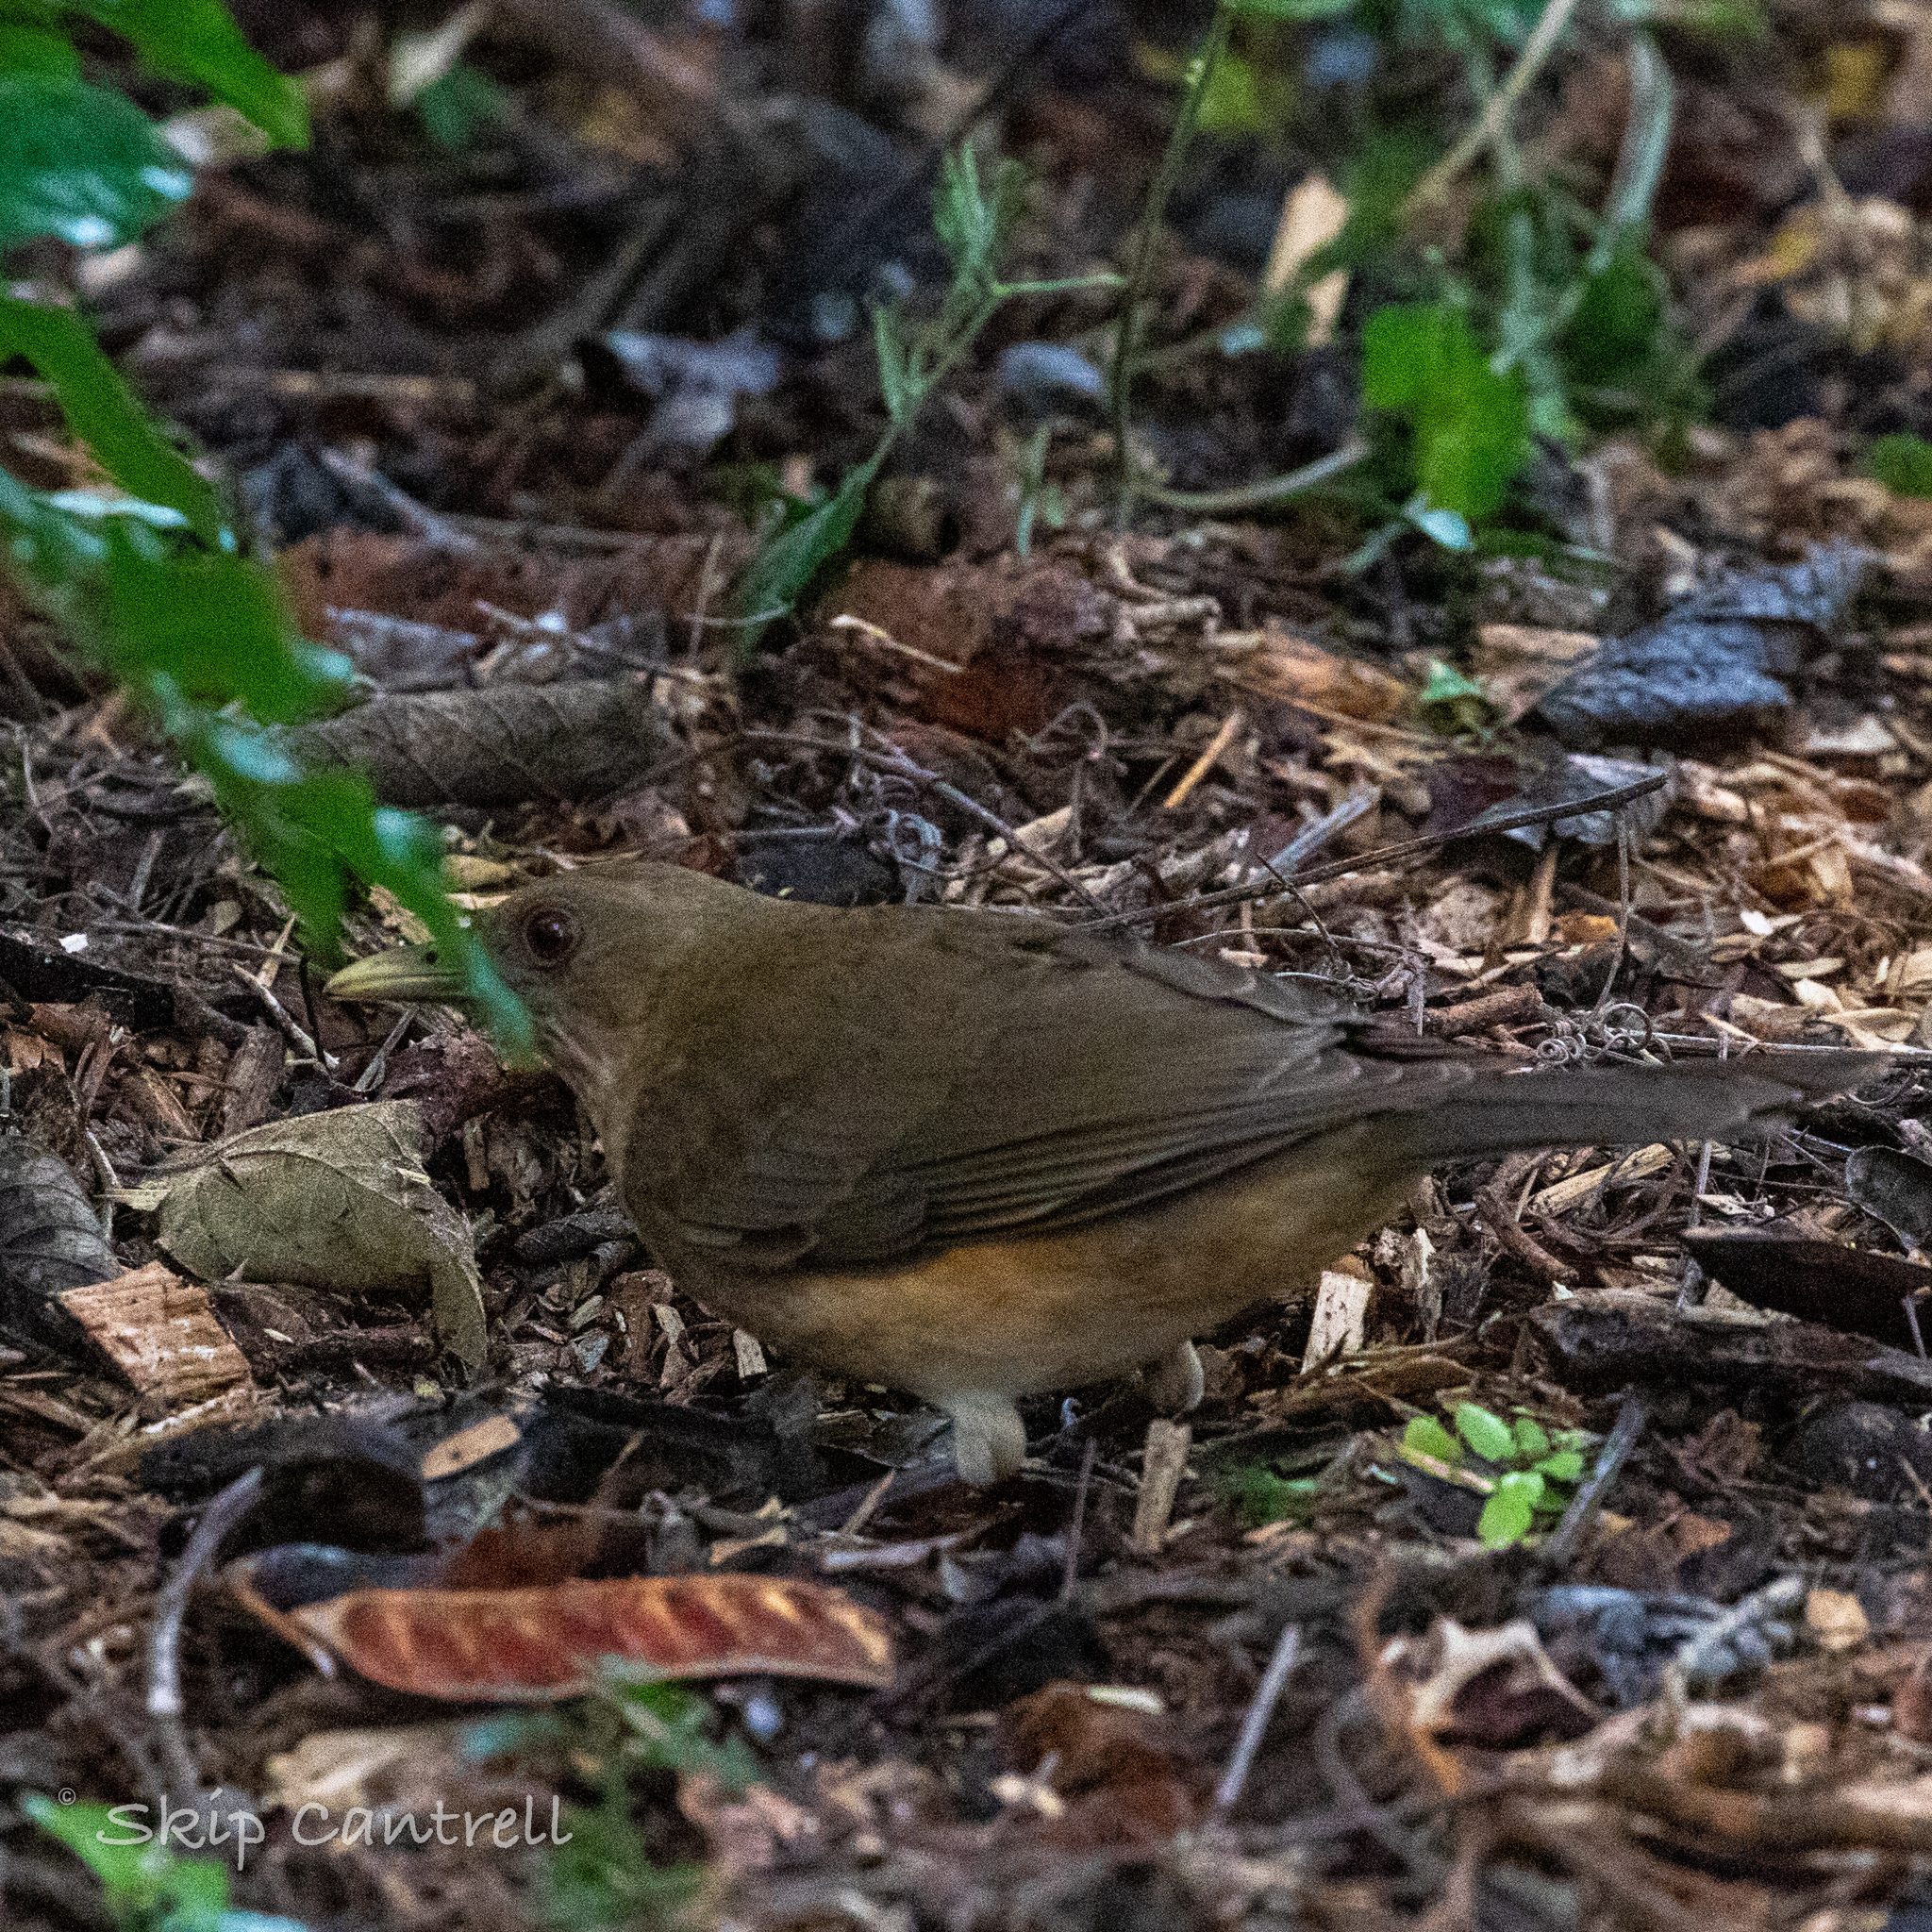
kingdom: Animalia
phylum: Chordata
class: Aves
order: Passeriformes
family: Turdidae
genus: Turdus
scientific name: Turdus grayi
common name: Clay-colored thrush
